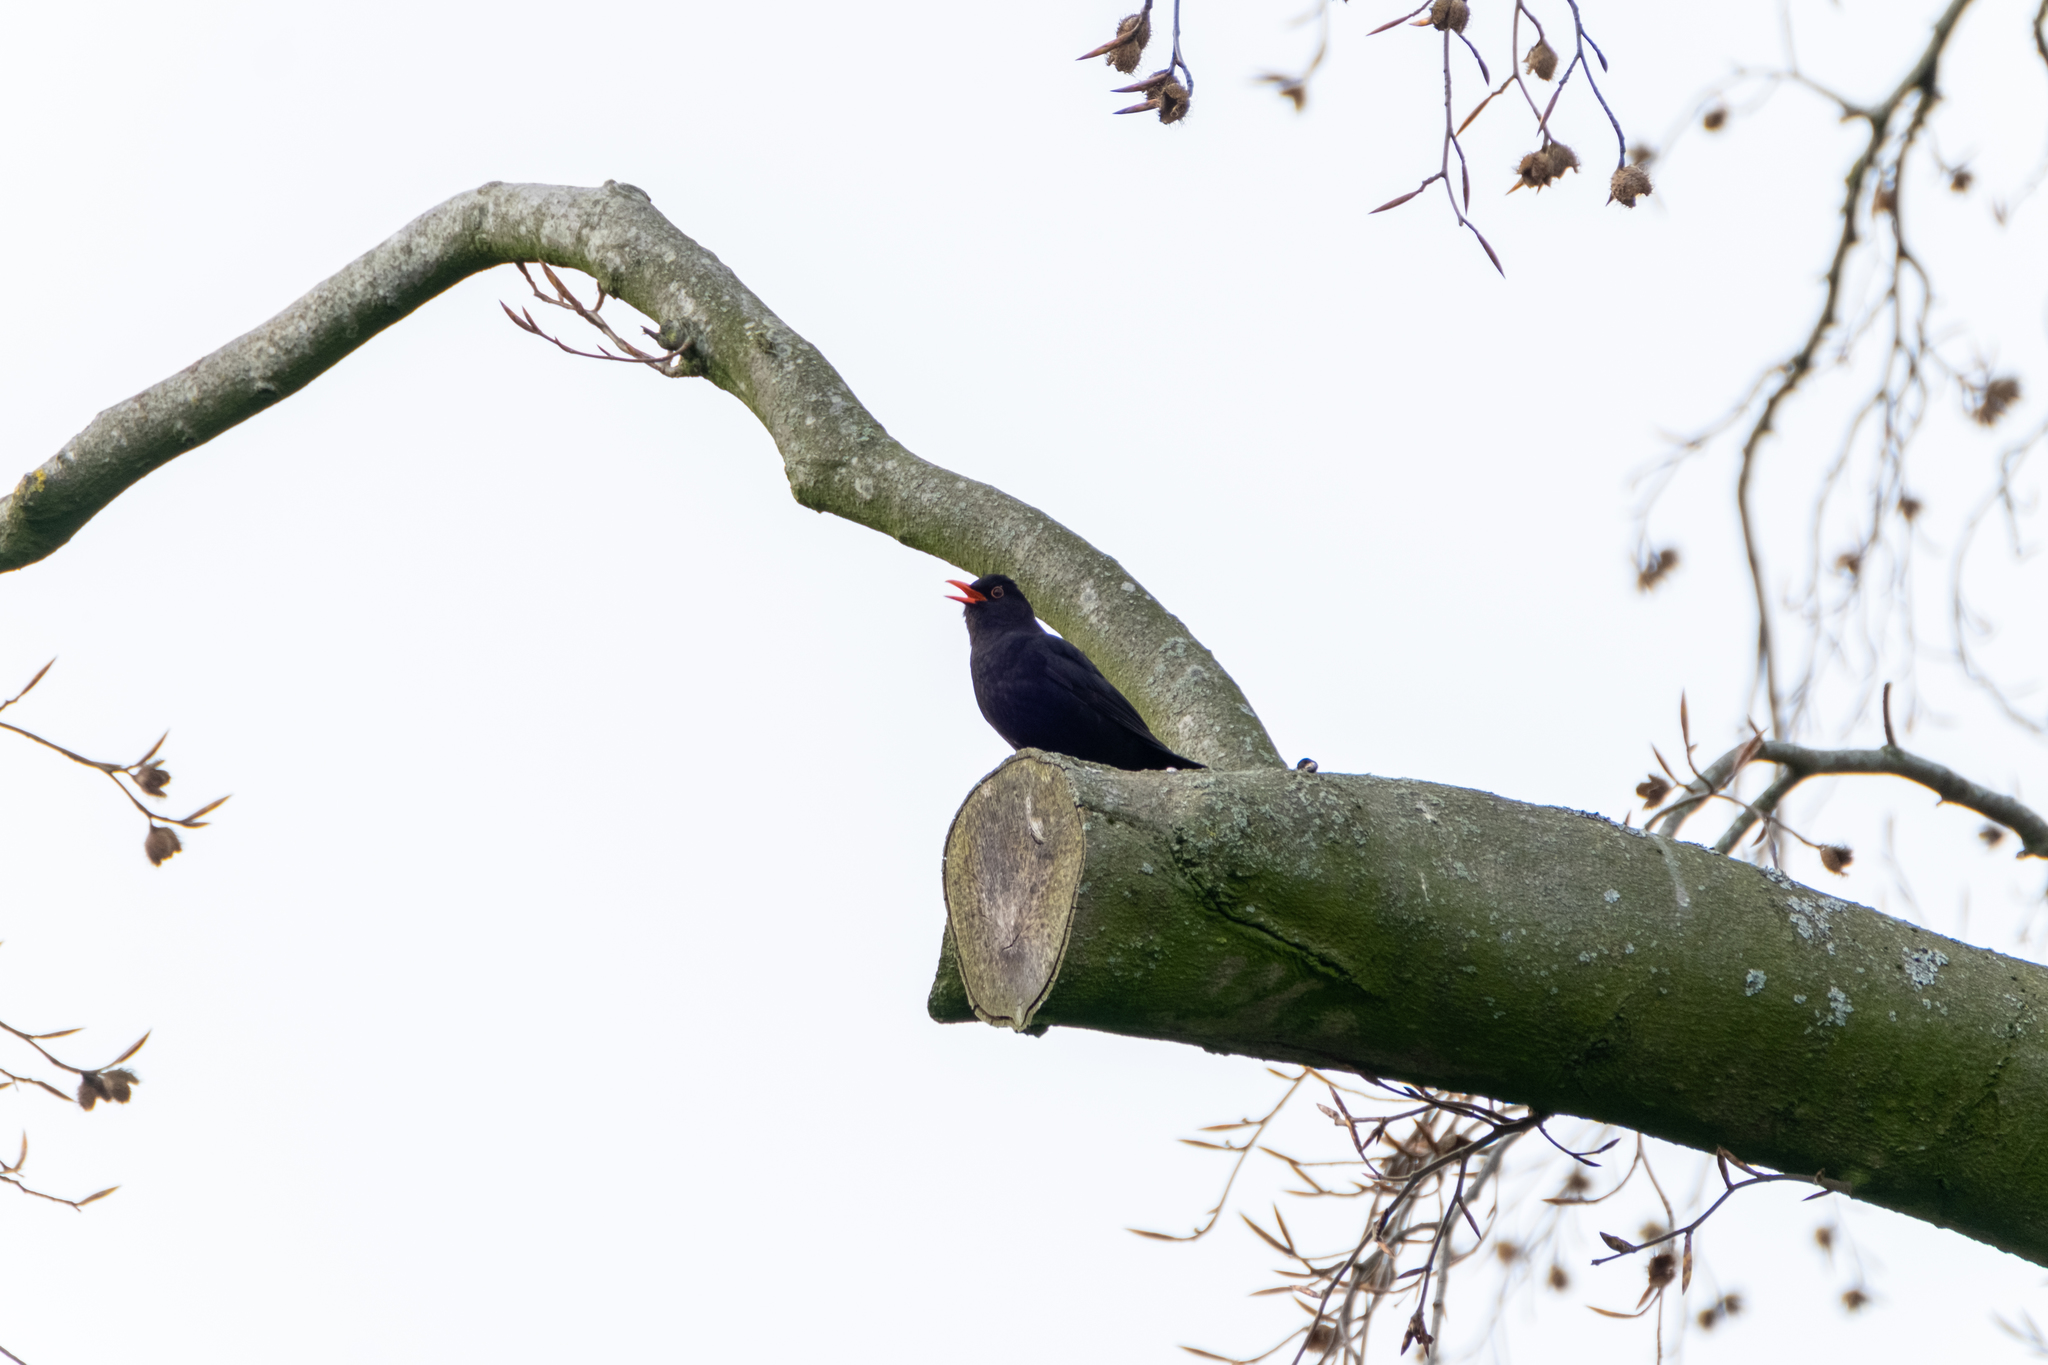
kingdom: Animalia
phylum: Chordata
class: Aves
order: Passeriformes
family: Turdidae
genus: Turdus
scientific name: Turdus merula
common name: Common blackbird
